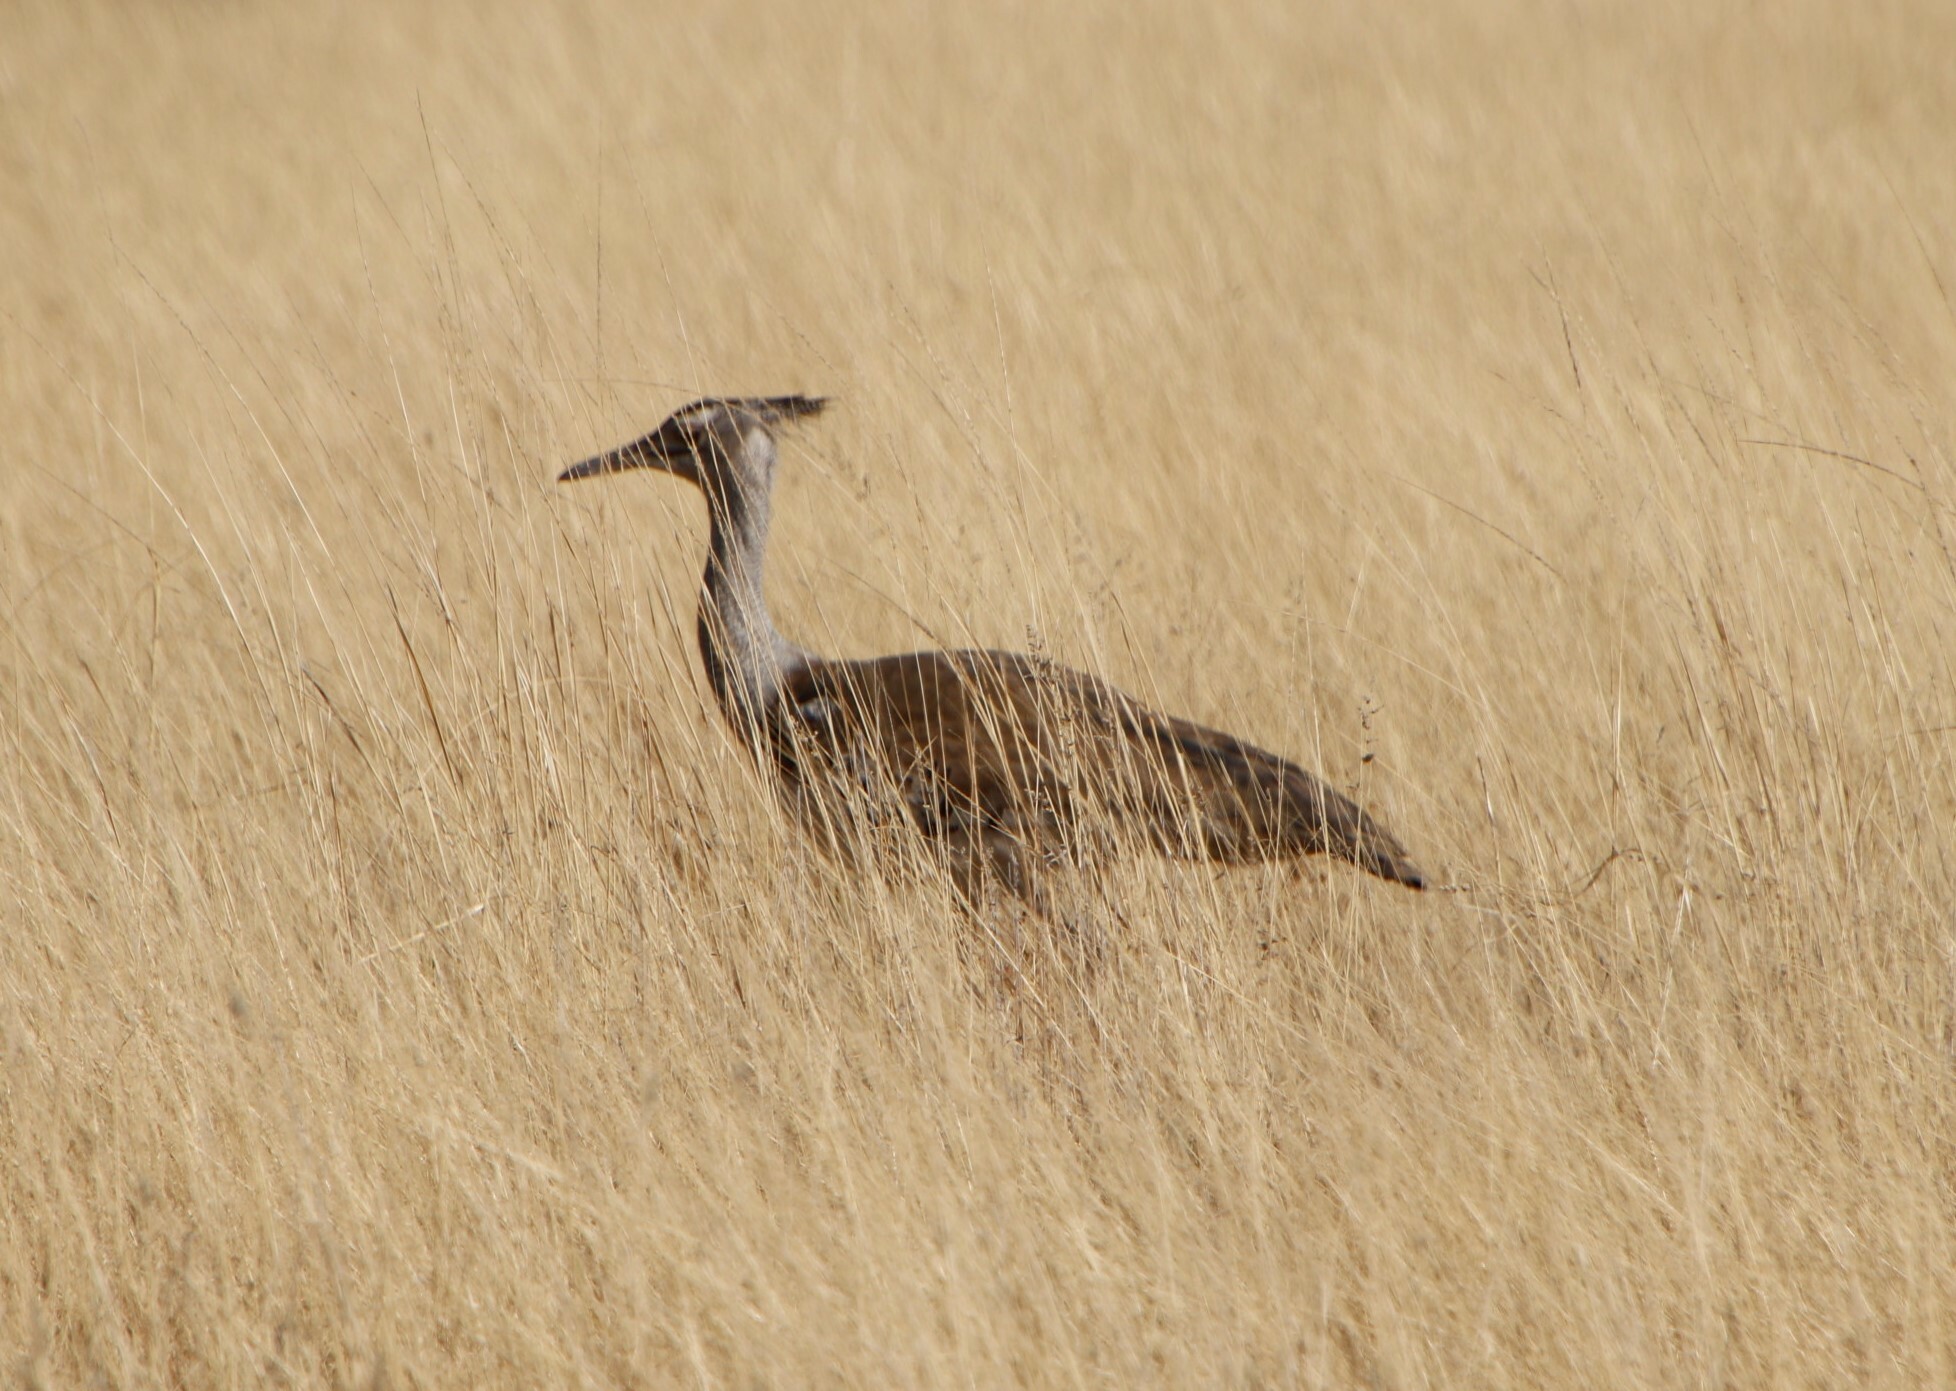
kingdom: Animalia
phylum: Chordata
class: Aves
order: Otidiformes
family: Otididae
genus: Ardeotis
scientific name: Ardeotis kori
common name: Kori bustard
